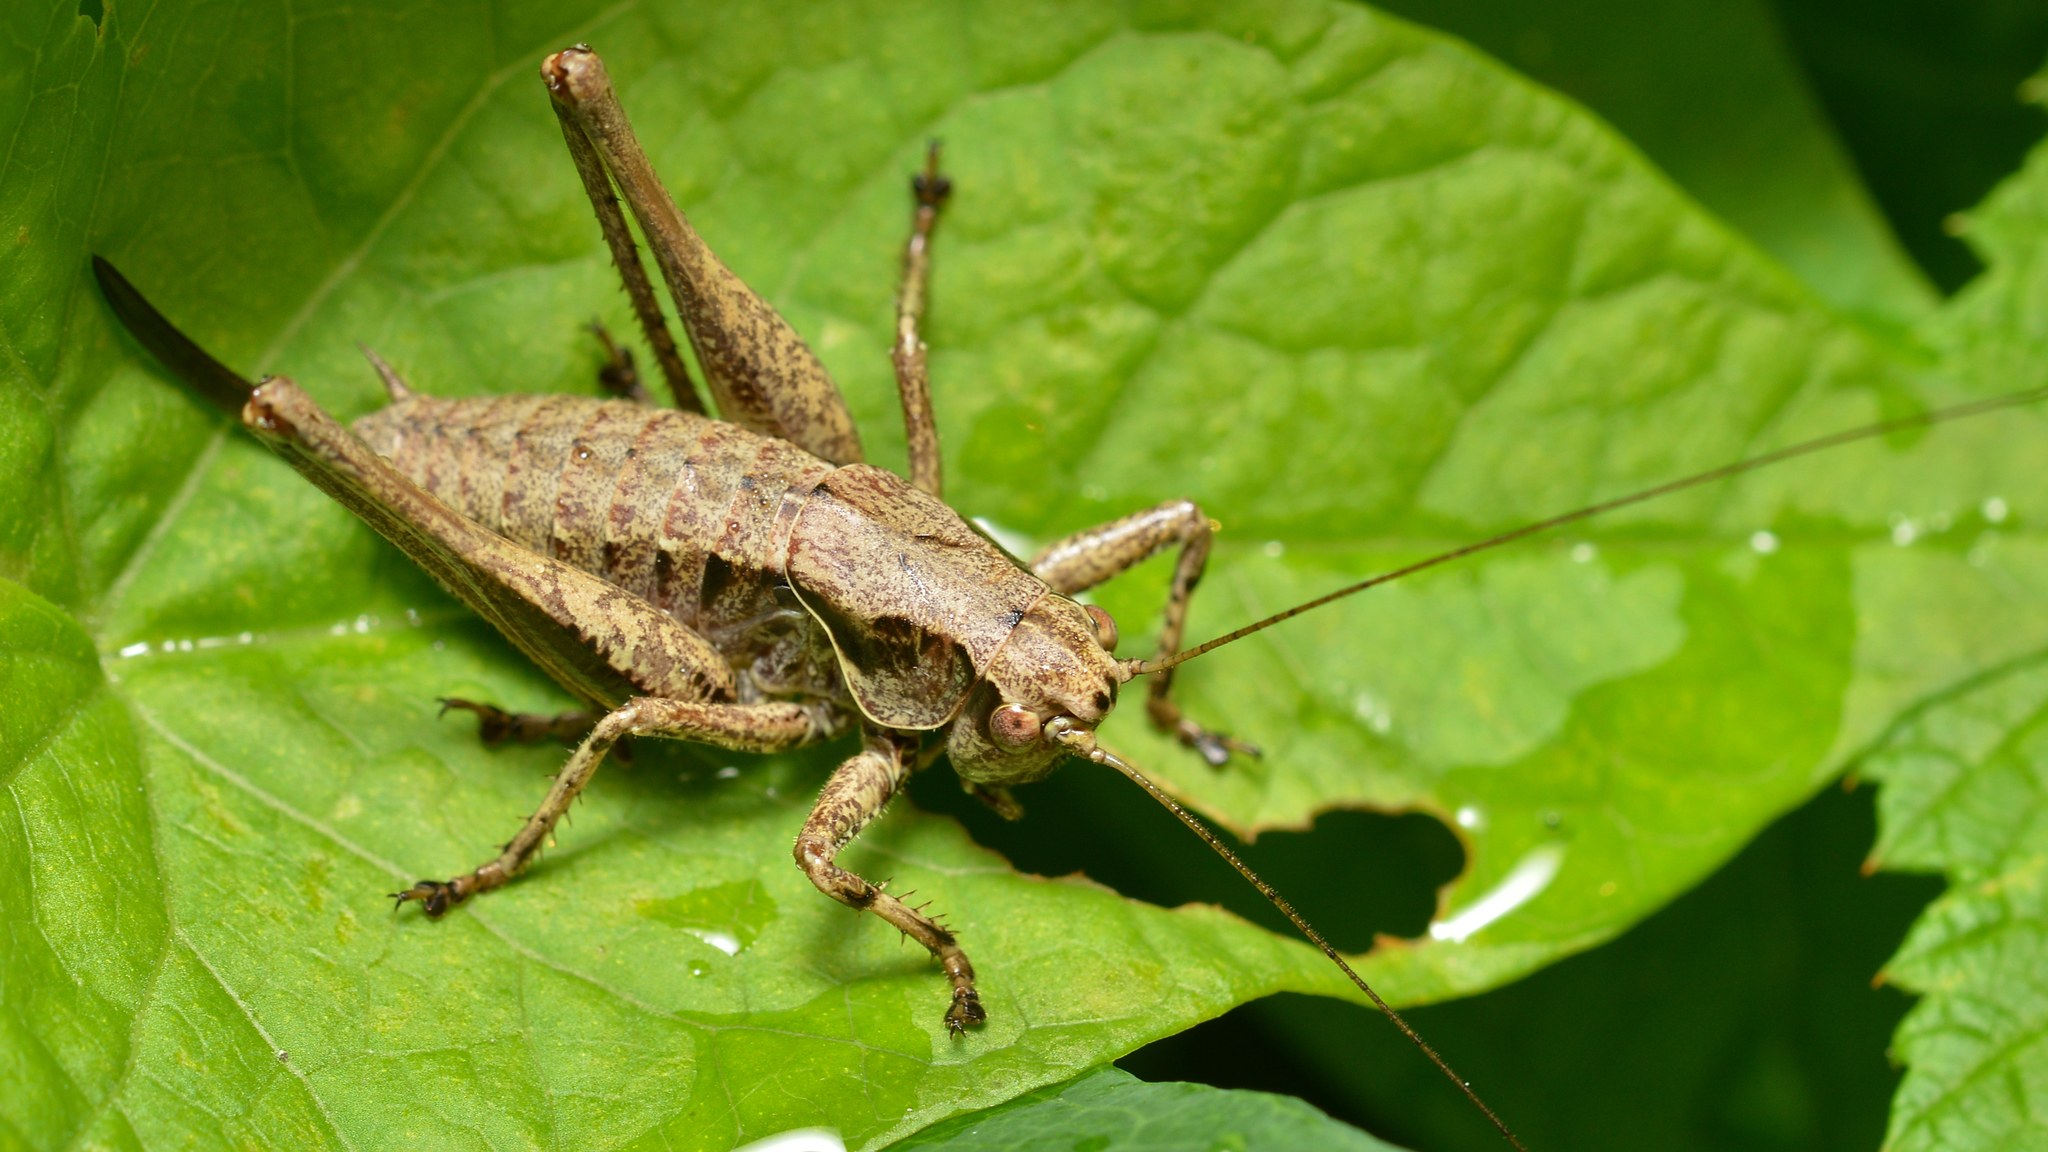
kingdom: Animalia
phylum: Arthropoda
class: Insecta
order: Orthoptera
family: Tettigoniidae
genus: Pholidoptera
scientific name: Pholidoptera griseoaptera
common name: Dark bush-cricket
